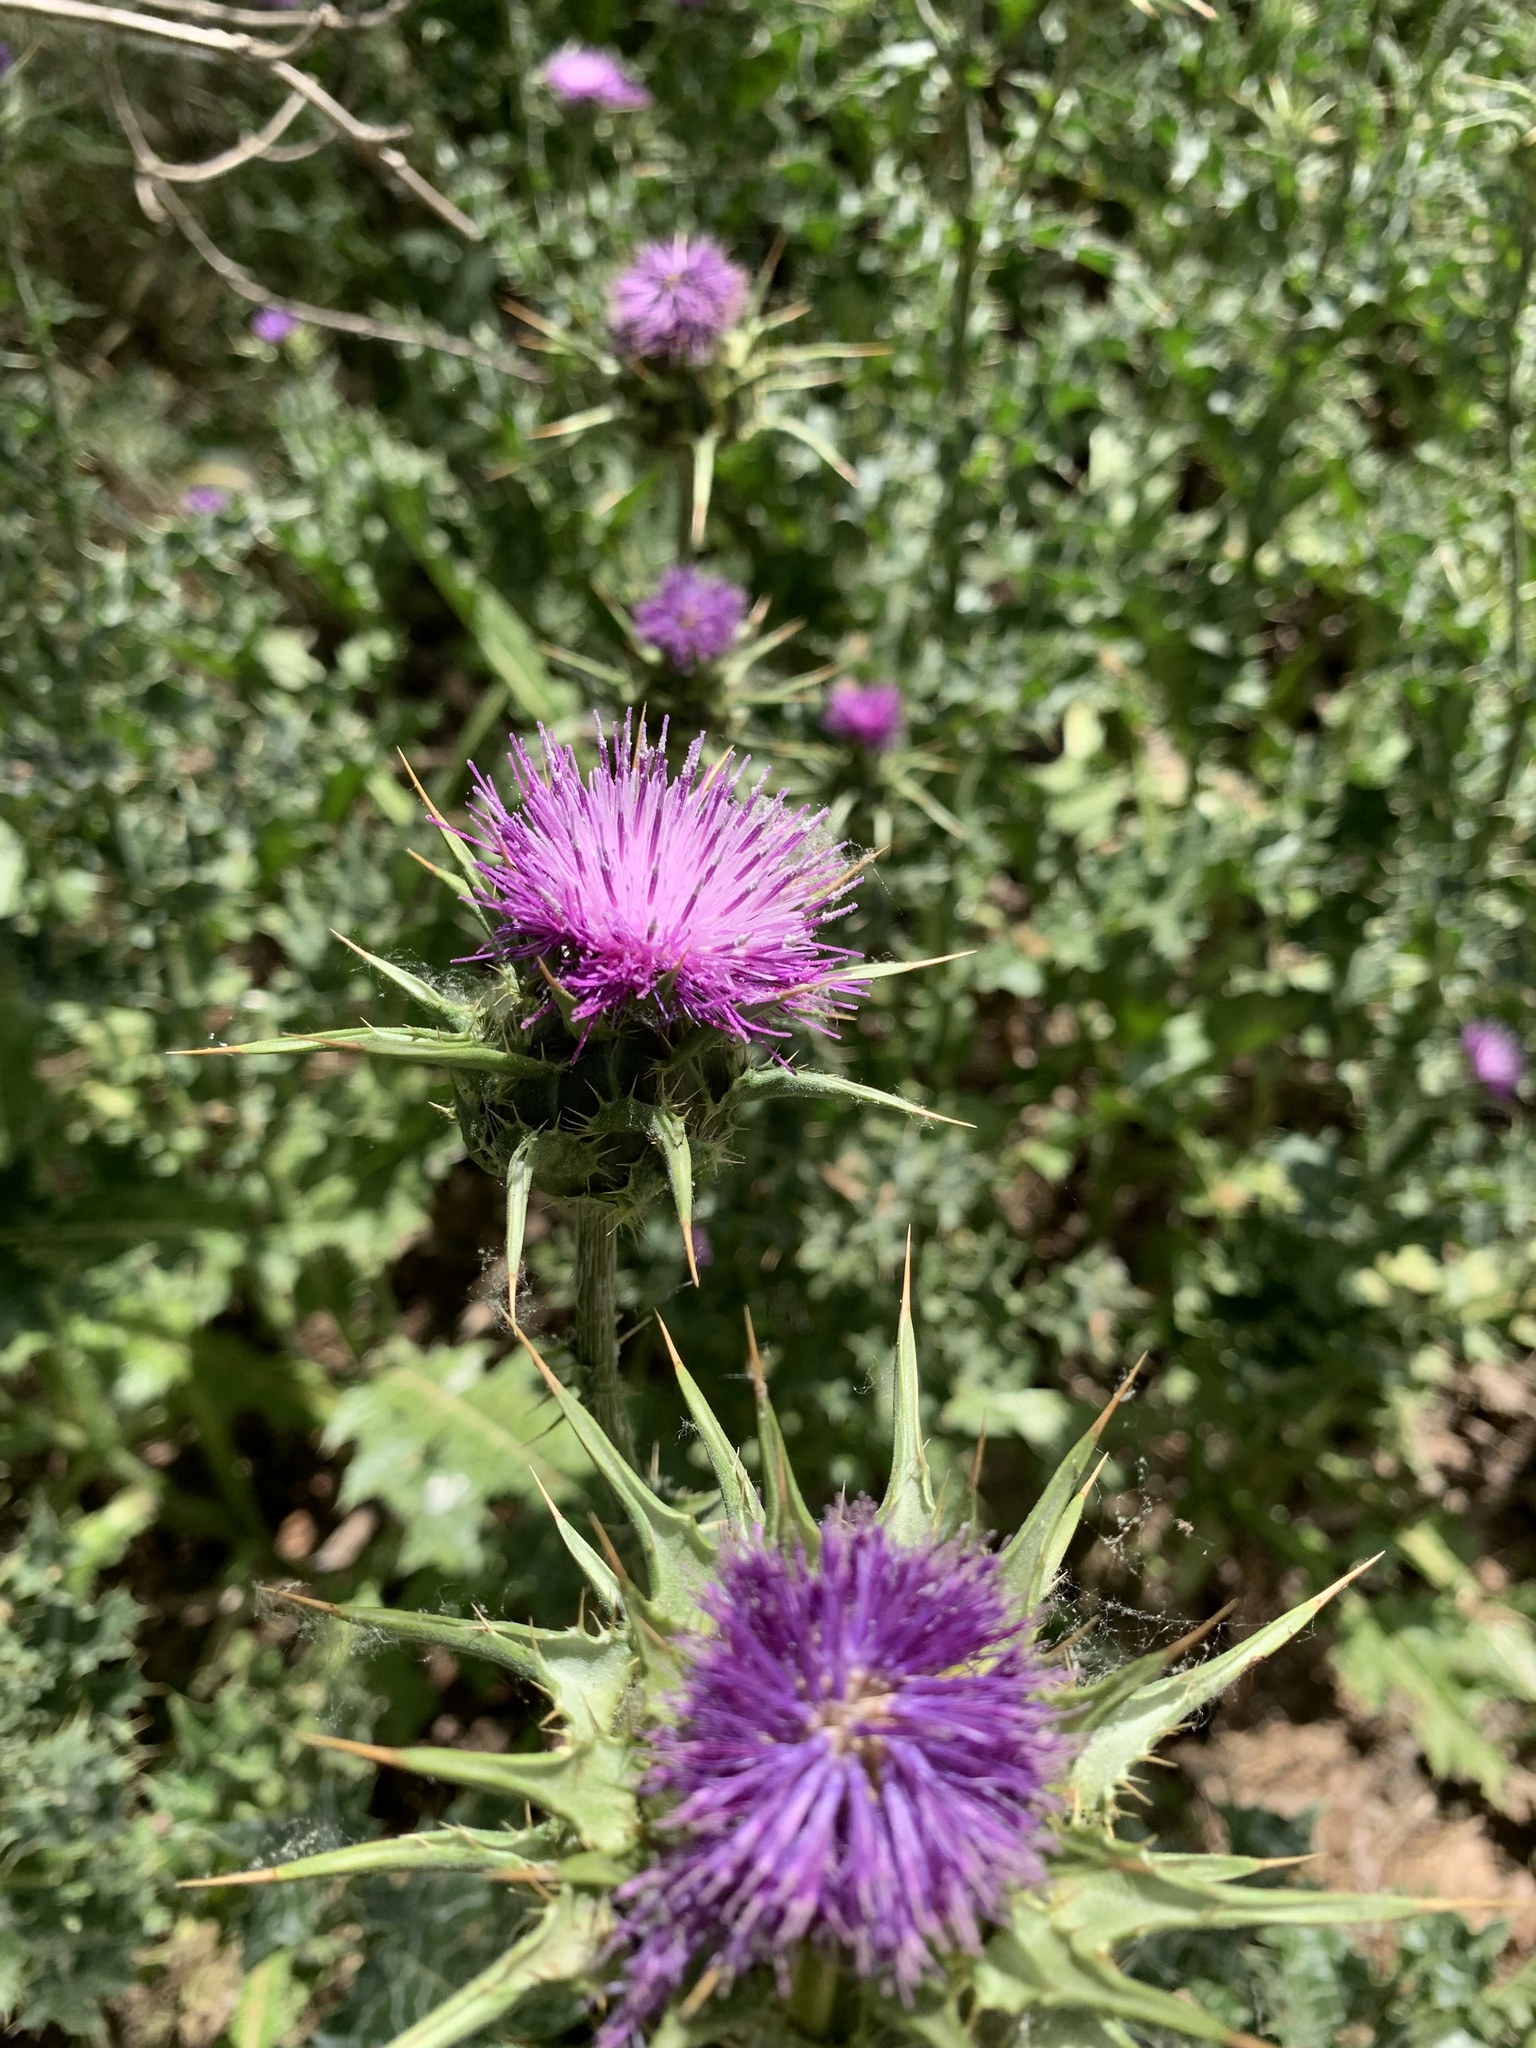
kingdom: Plantae
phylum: Tracheophyta
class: Magnoliopsida
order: Asterales
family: Asteraceae
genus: Silybum
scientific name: Silybum marianum
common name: Milk thistle
